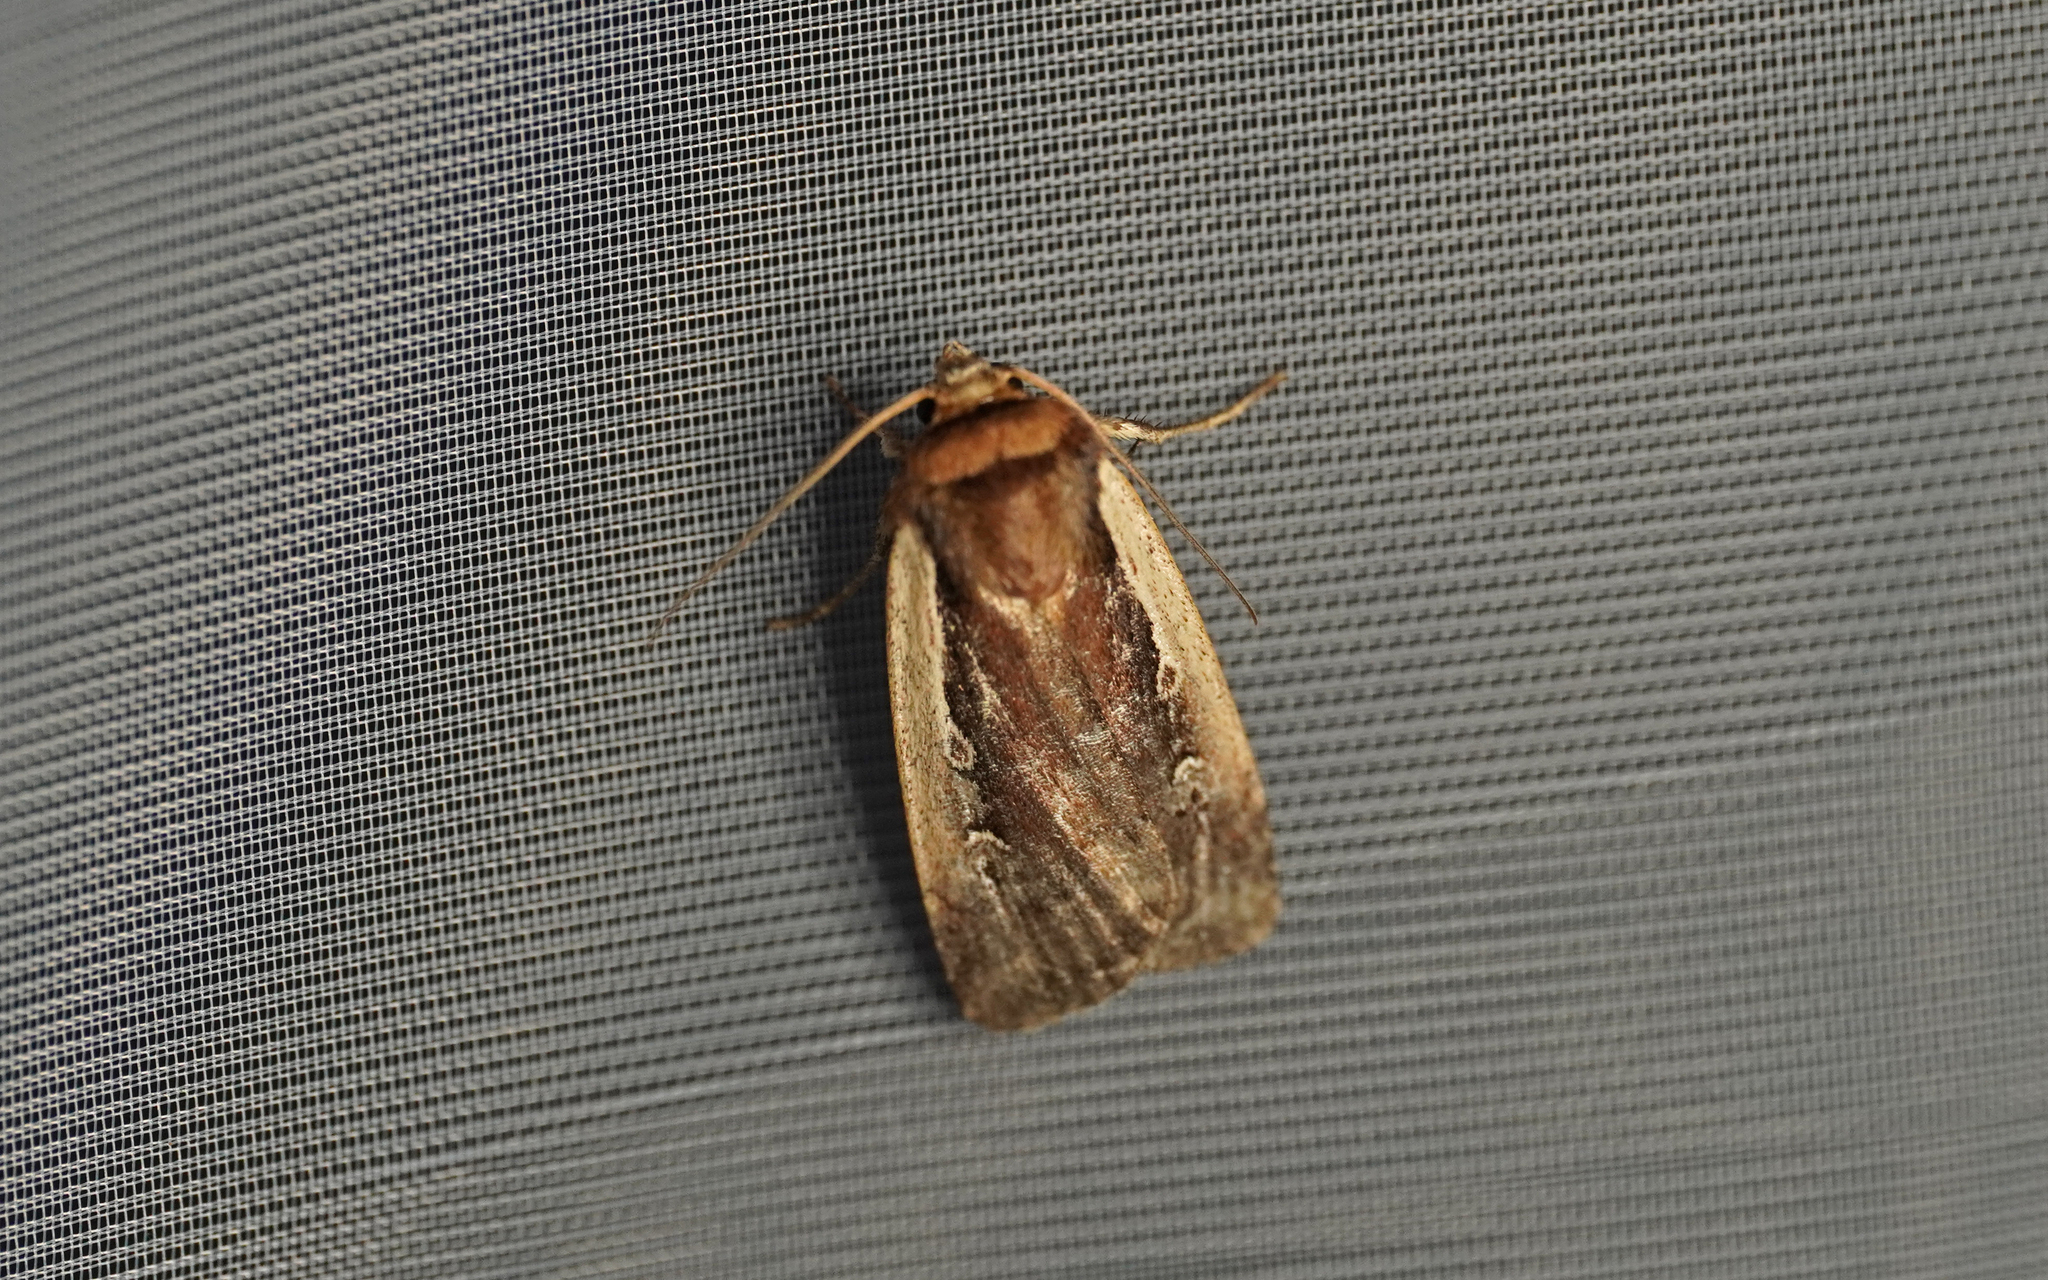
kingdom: Animalia
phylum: Arthropoda
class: Insecta
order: Lepidoptera
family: Noctuidae
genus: Ochropleura
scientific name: Ochropleura plecta
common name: Flame shoulder
